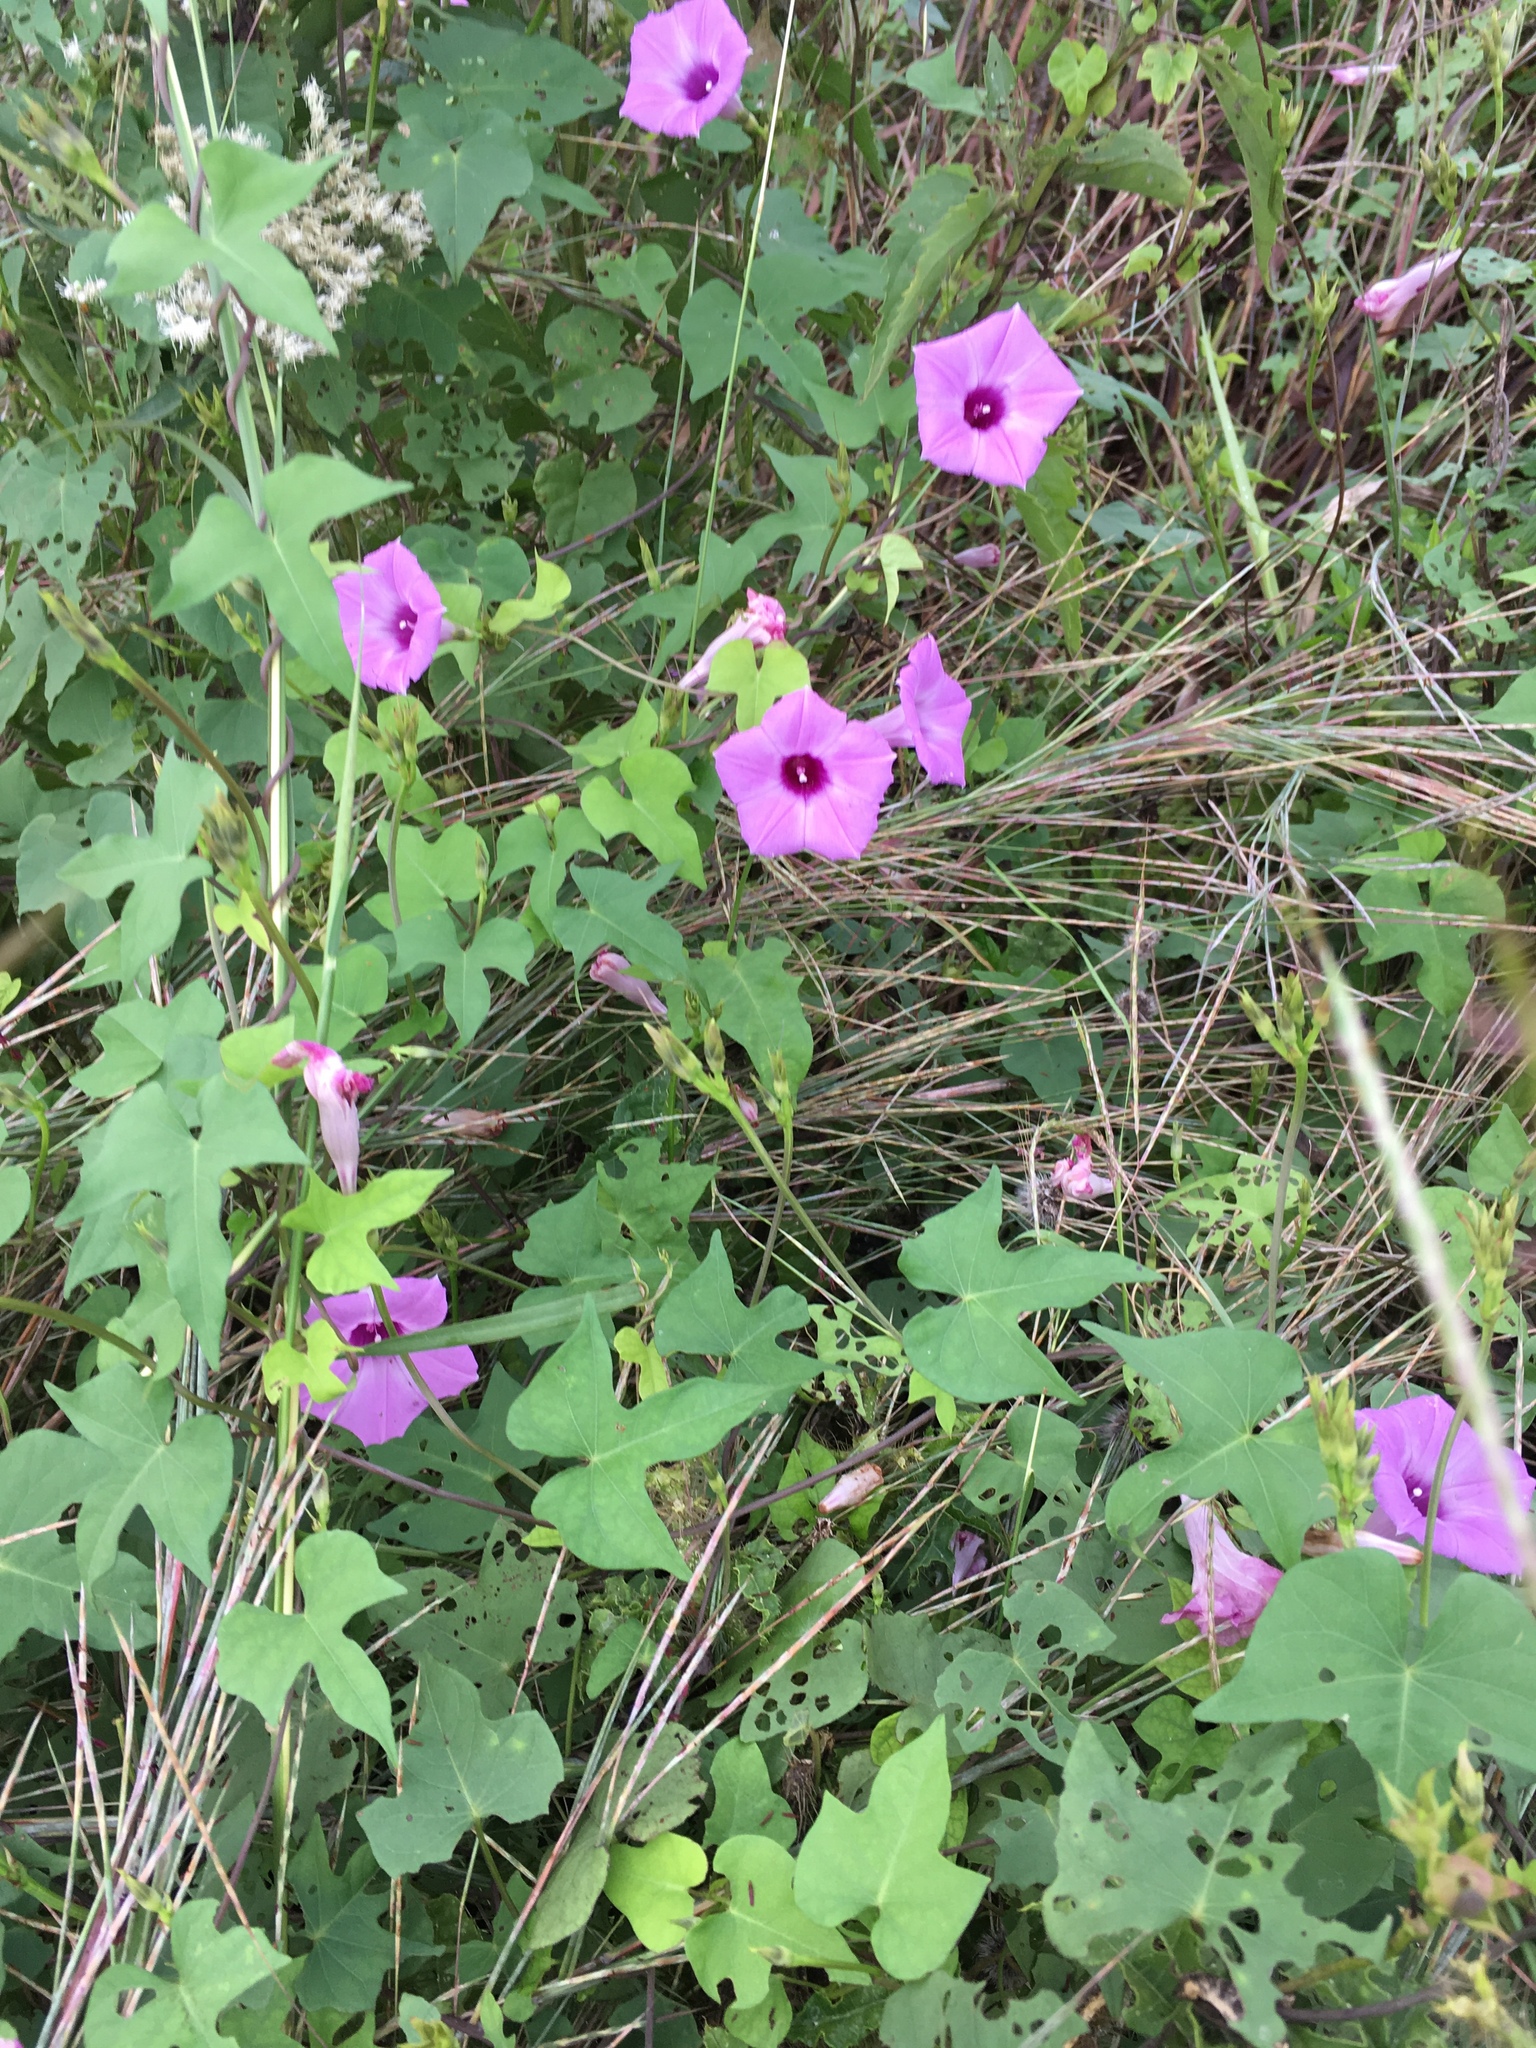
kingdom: Plantae
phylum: Tracheophyta
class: Magnoliopsida
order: Solanales
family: Convolvulaceae
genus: Ipomoea
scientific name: Ipomoea cordatotriloba
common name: Cotton morning glory
